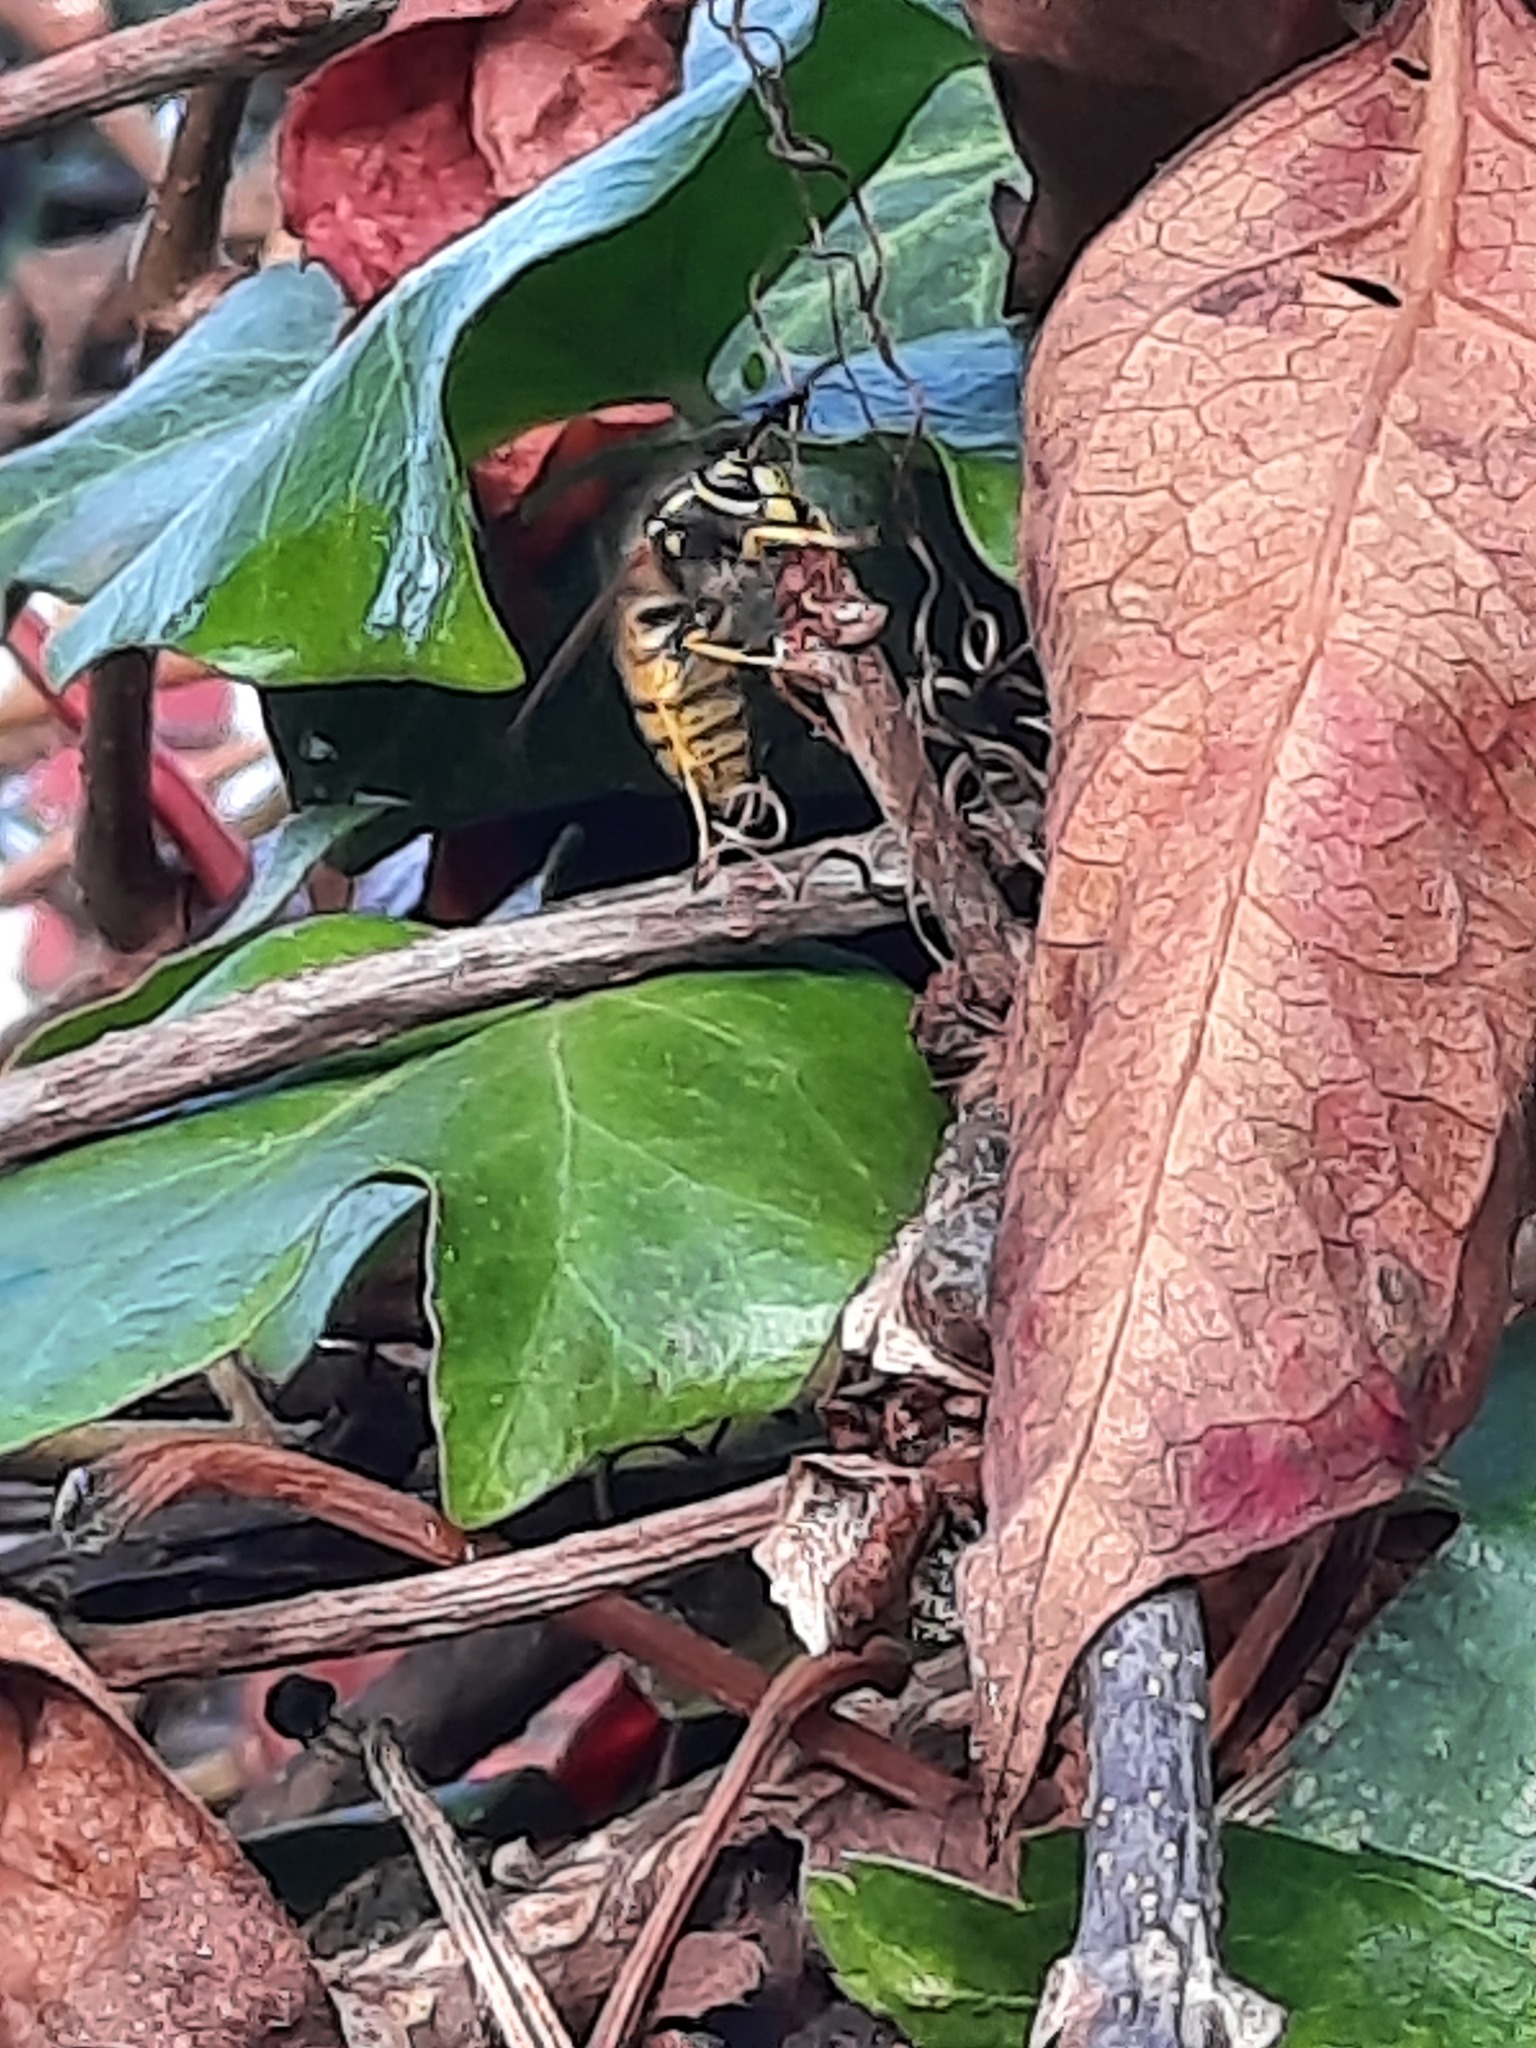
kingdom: Animalia
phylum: Arthropoda
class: Insecta
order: Hymenoptera
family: Vespidae
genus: Vespula
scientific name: Vespula vulgaris
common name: Common wasp
